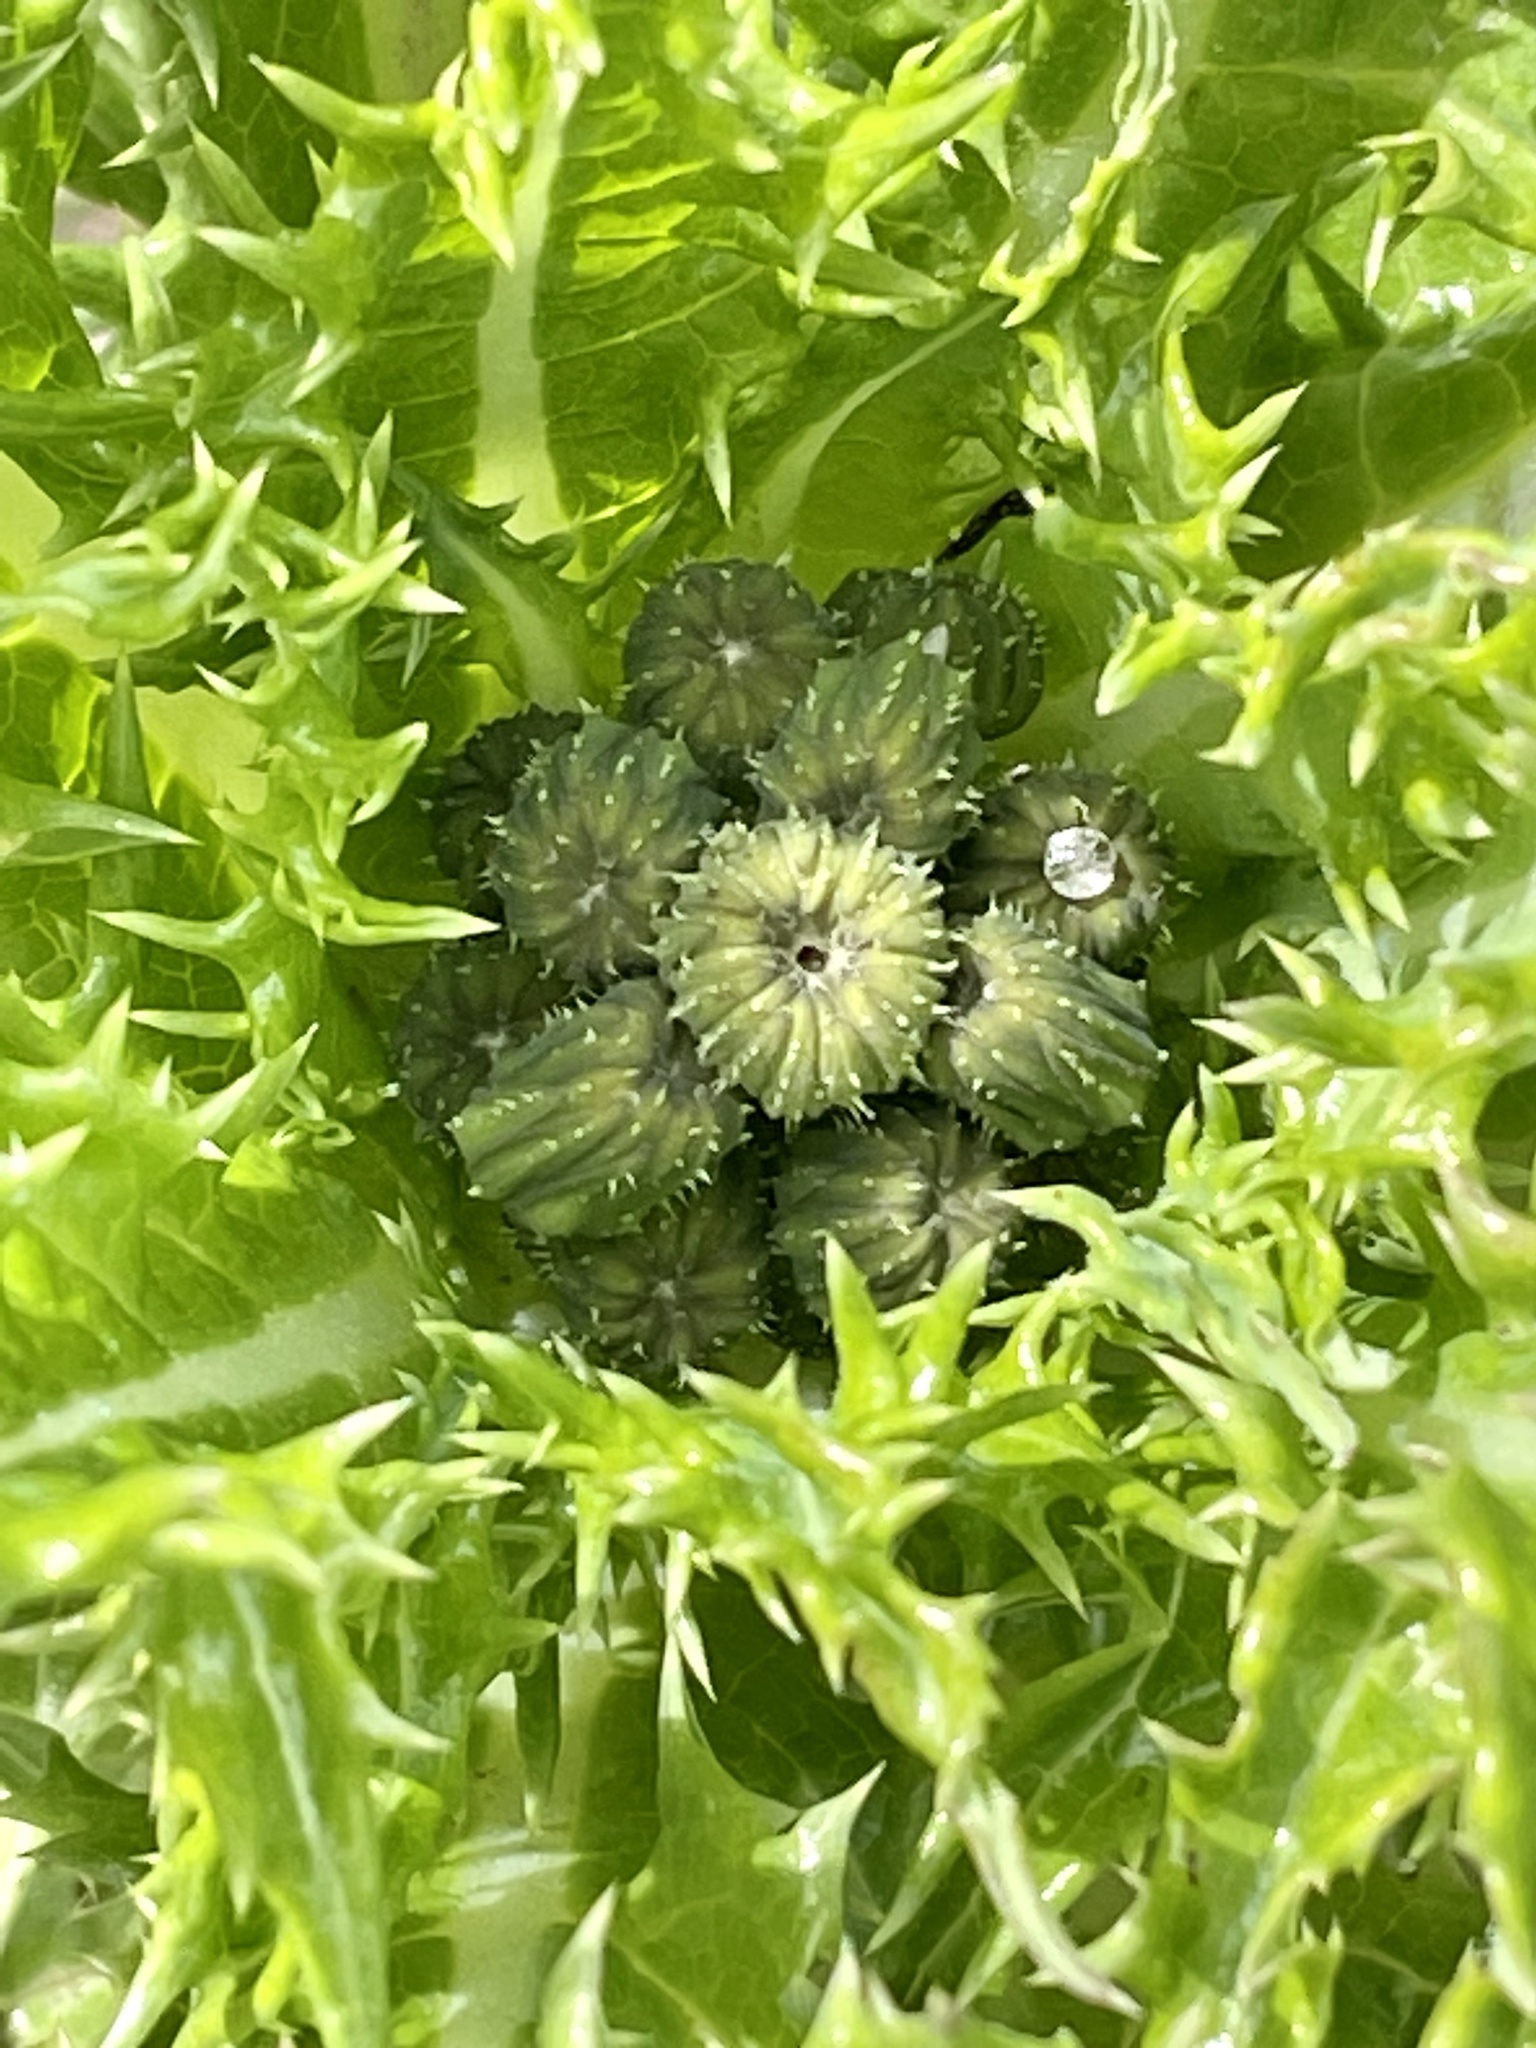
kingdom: Plantae
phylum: Tracheophyta
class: Magnoliopsida
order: Asterales
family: Asteraceae
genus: Sonchus
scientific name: Sonchus asper
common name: Prickly sow-thistle
